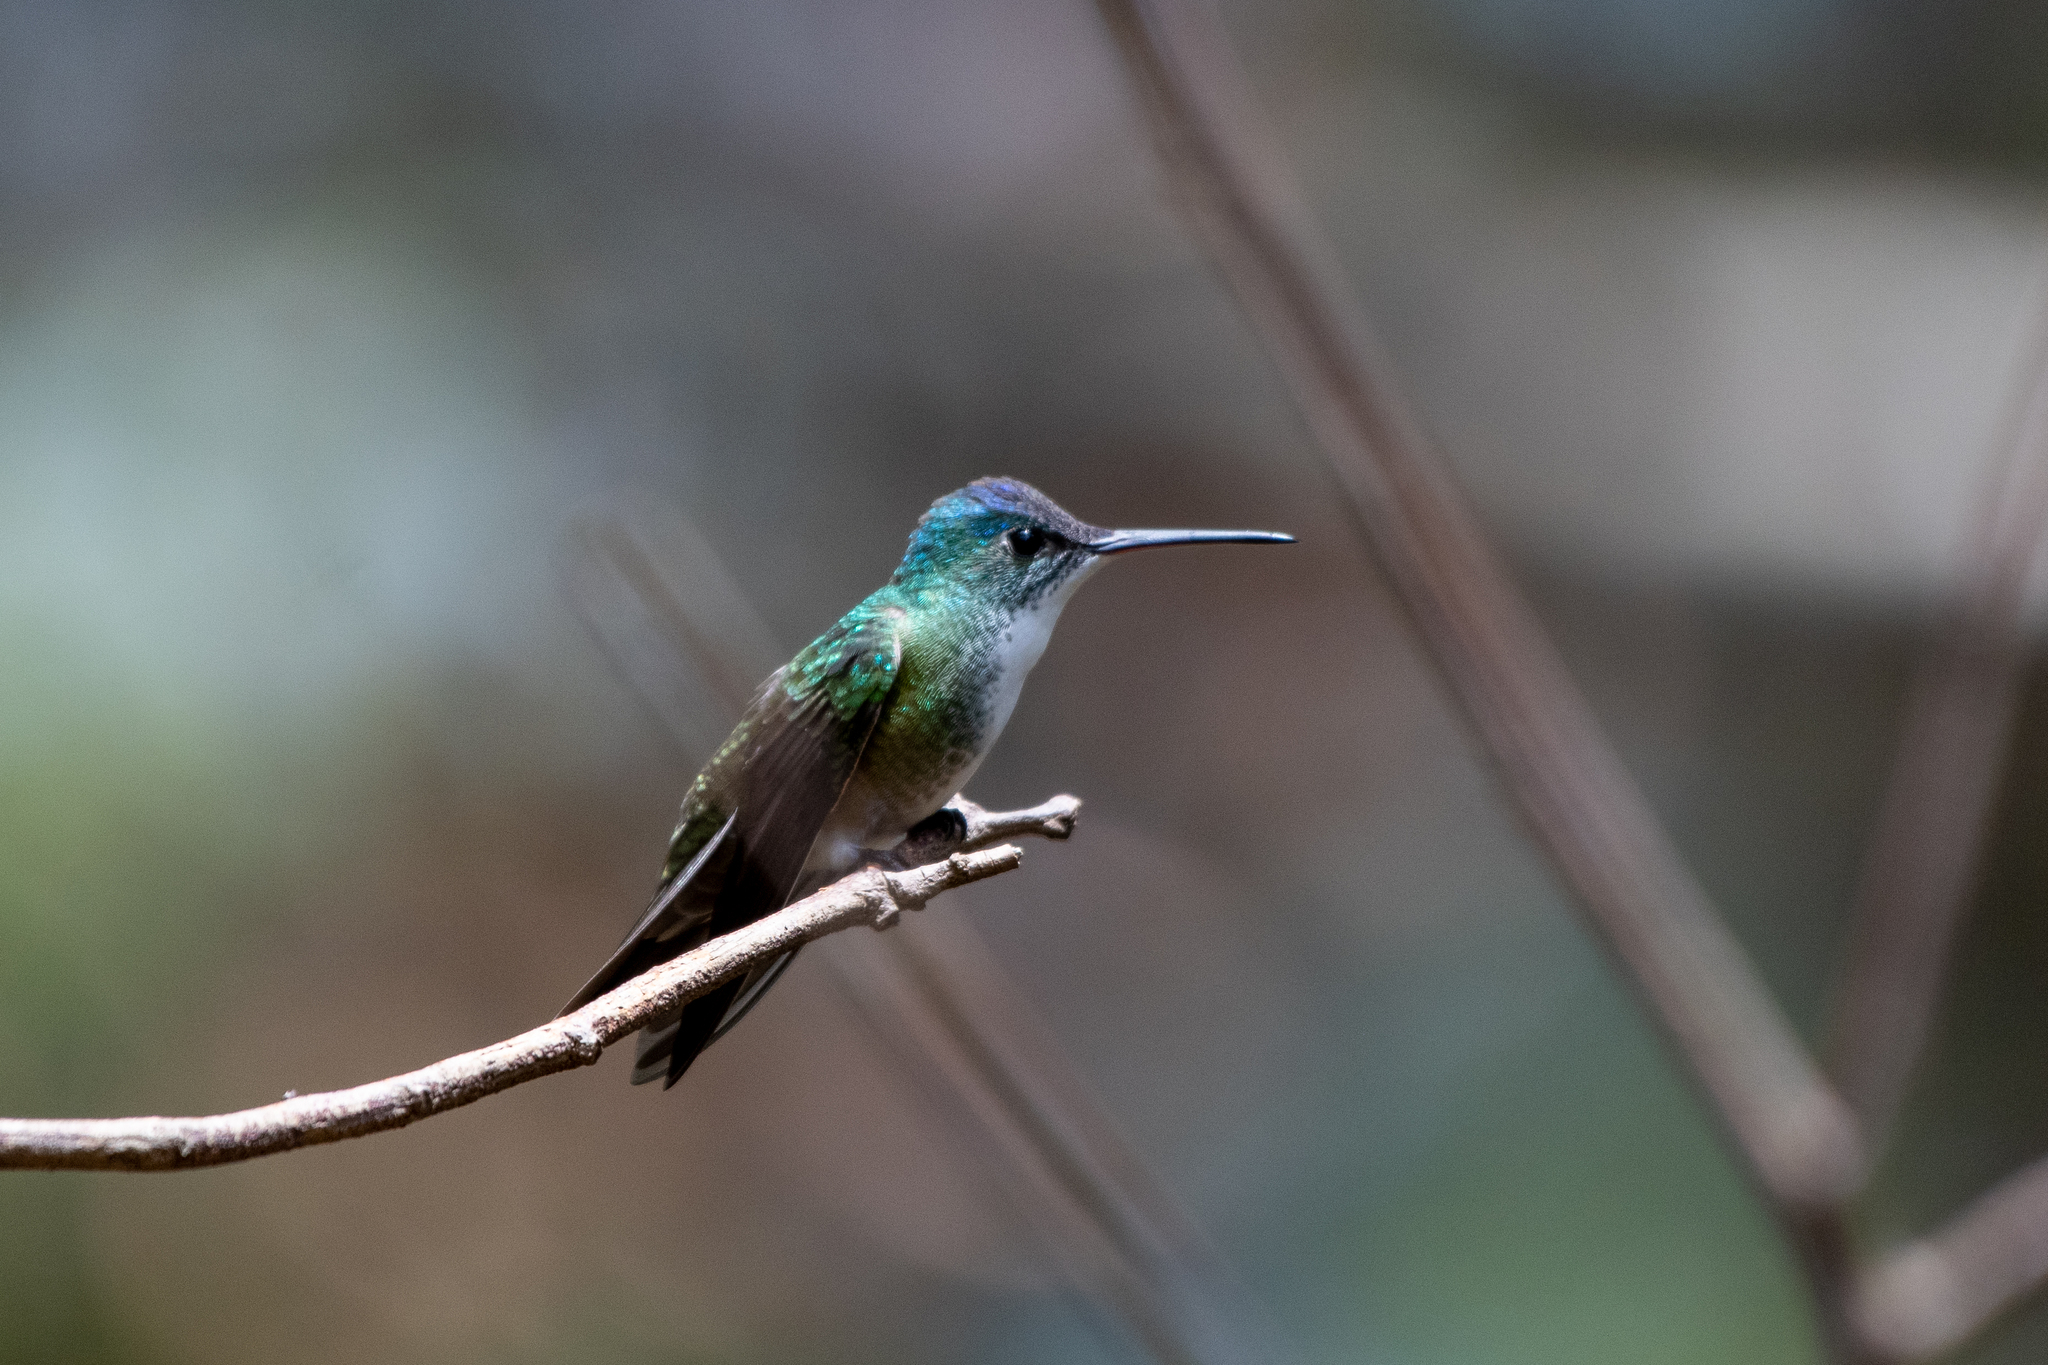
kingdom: Animalia
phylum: Chordata
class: Aves
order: Apodiformes
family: Trochilidae
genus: Saucerottia
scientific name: Saucerottia cyanocephala
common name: Azure-crowned hummingbird
